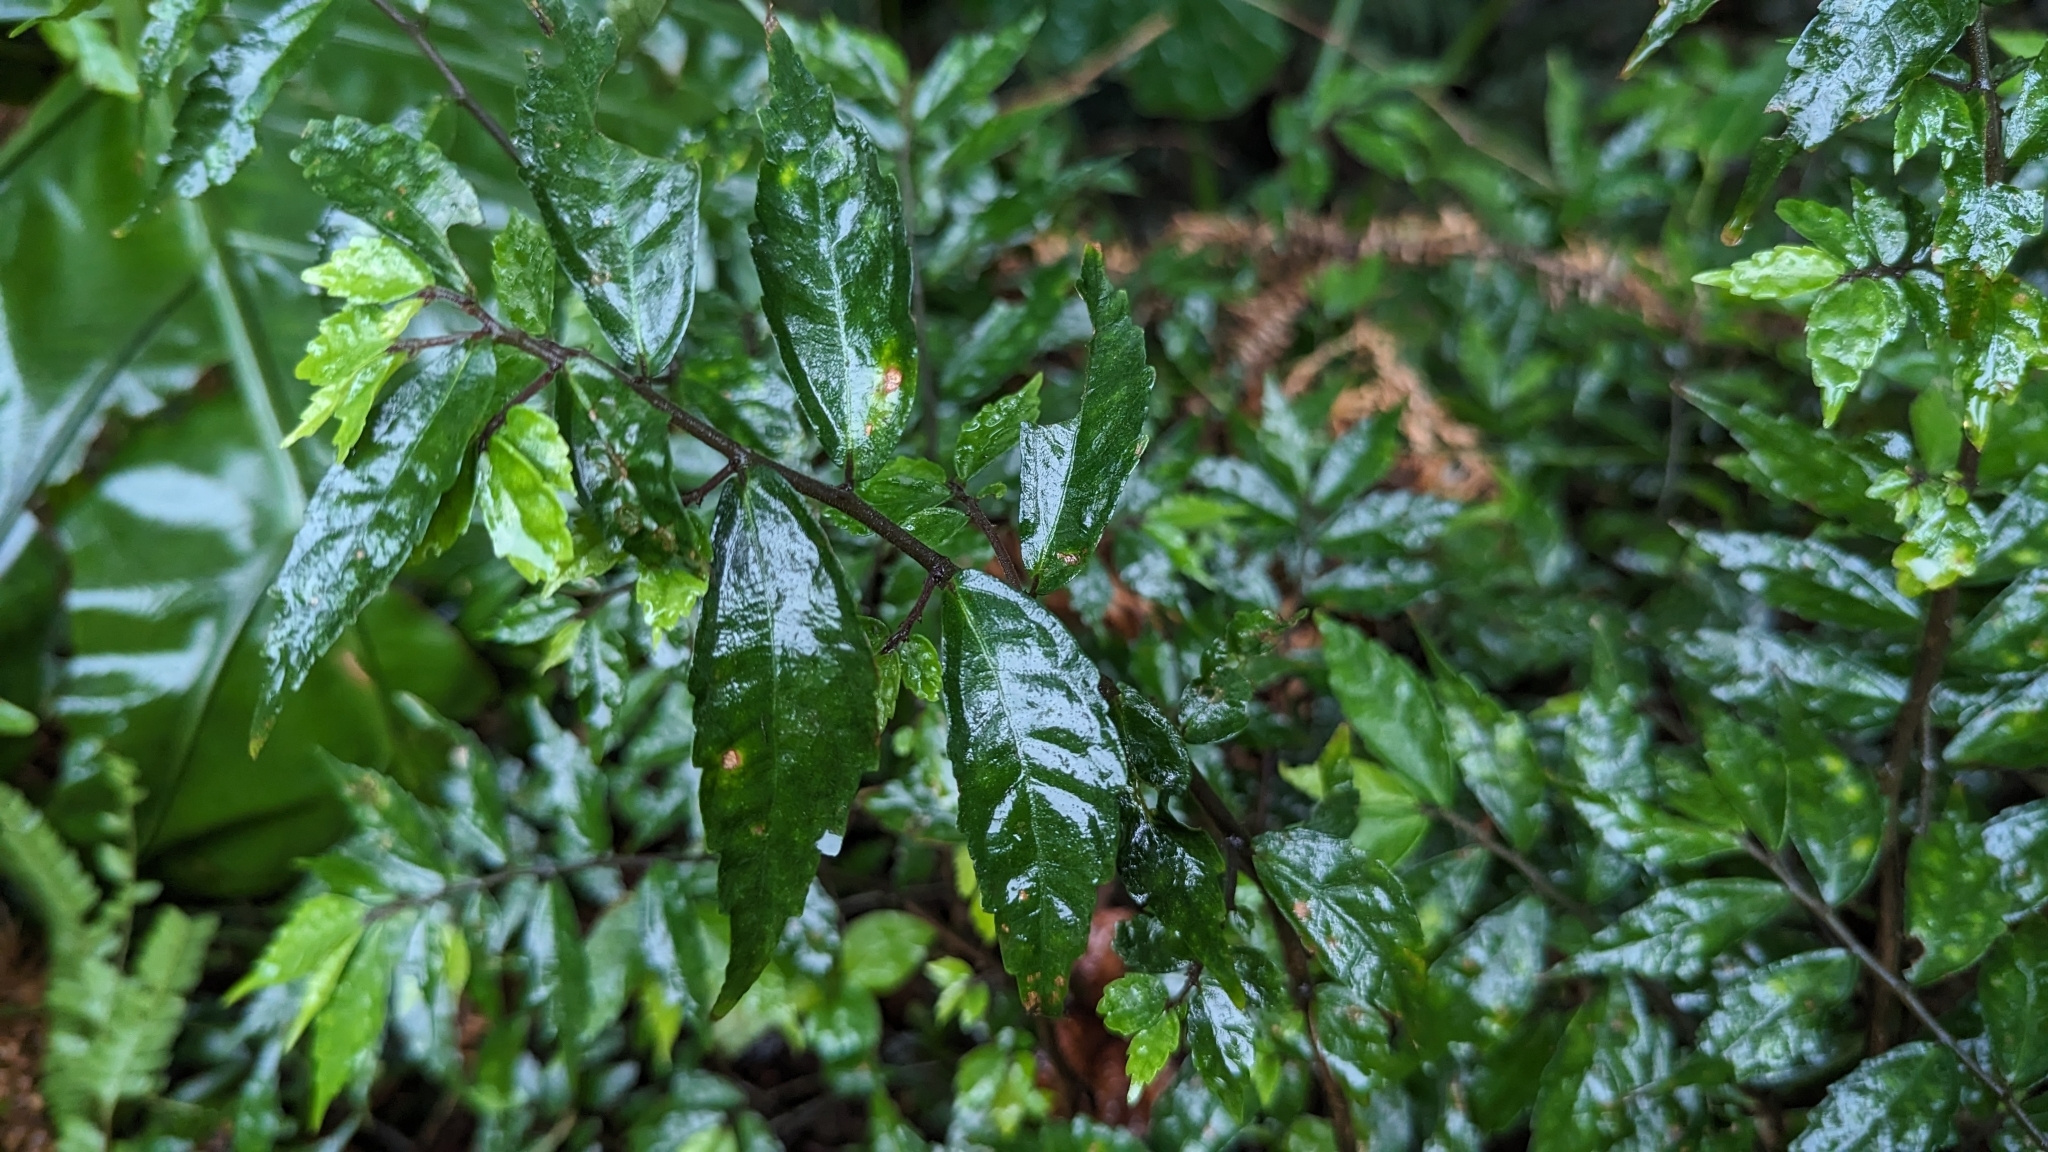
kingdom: Plantae
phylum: Tracheophyta
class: Magnoliopsida
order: Rosales
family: Urticaceae
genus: Elatostema
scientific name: Elatostema radicans
